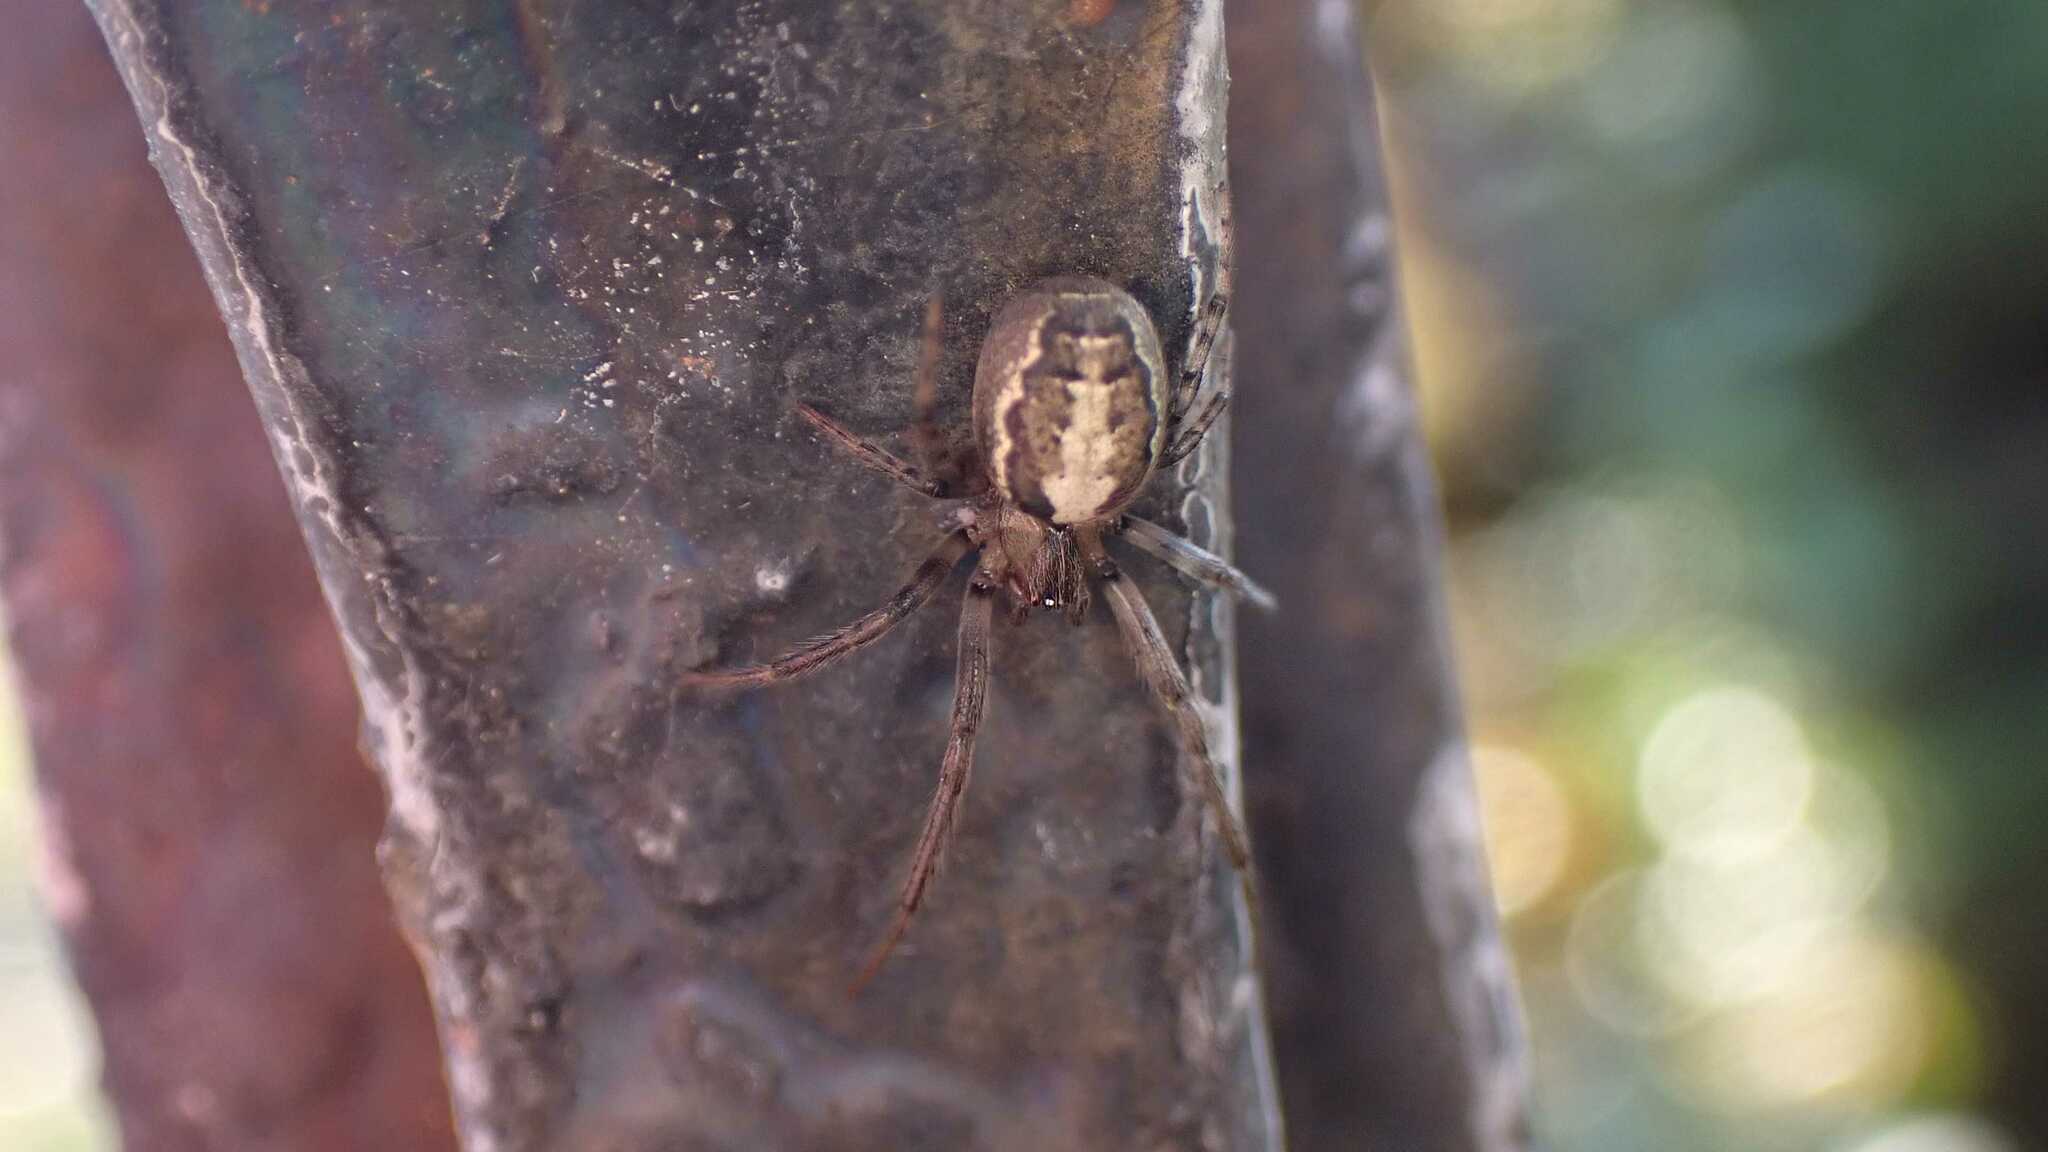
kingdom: Animalia
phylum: Arthropoda
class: Arachnida
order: Araneae
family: Araneidae
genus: Zygiella
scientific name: Zygiella x-notata
